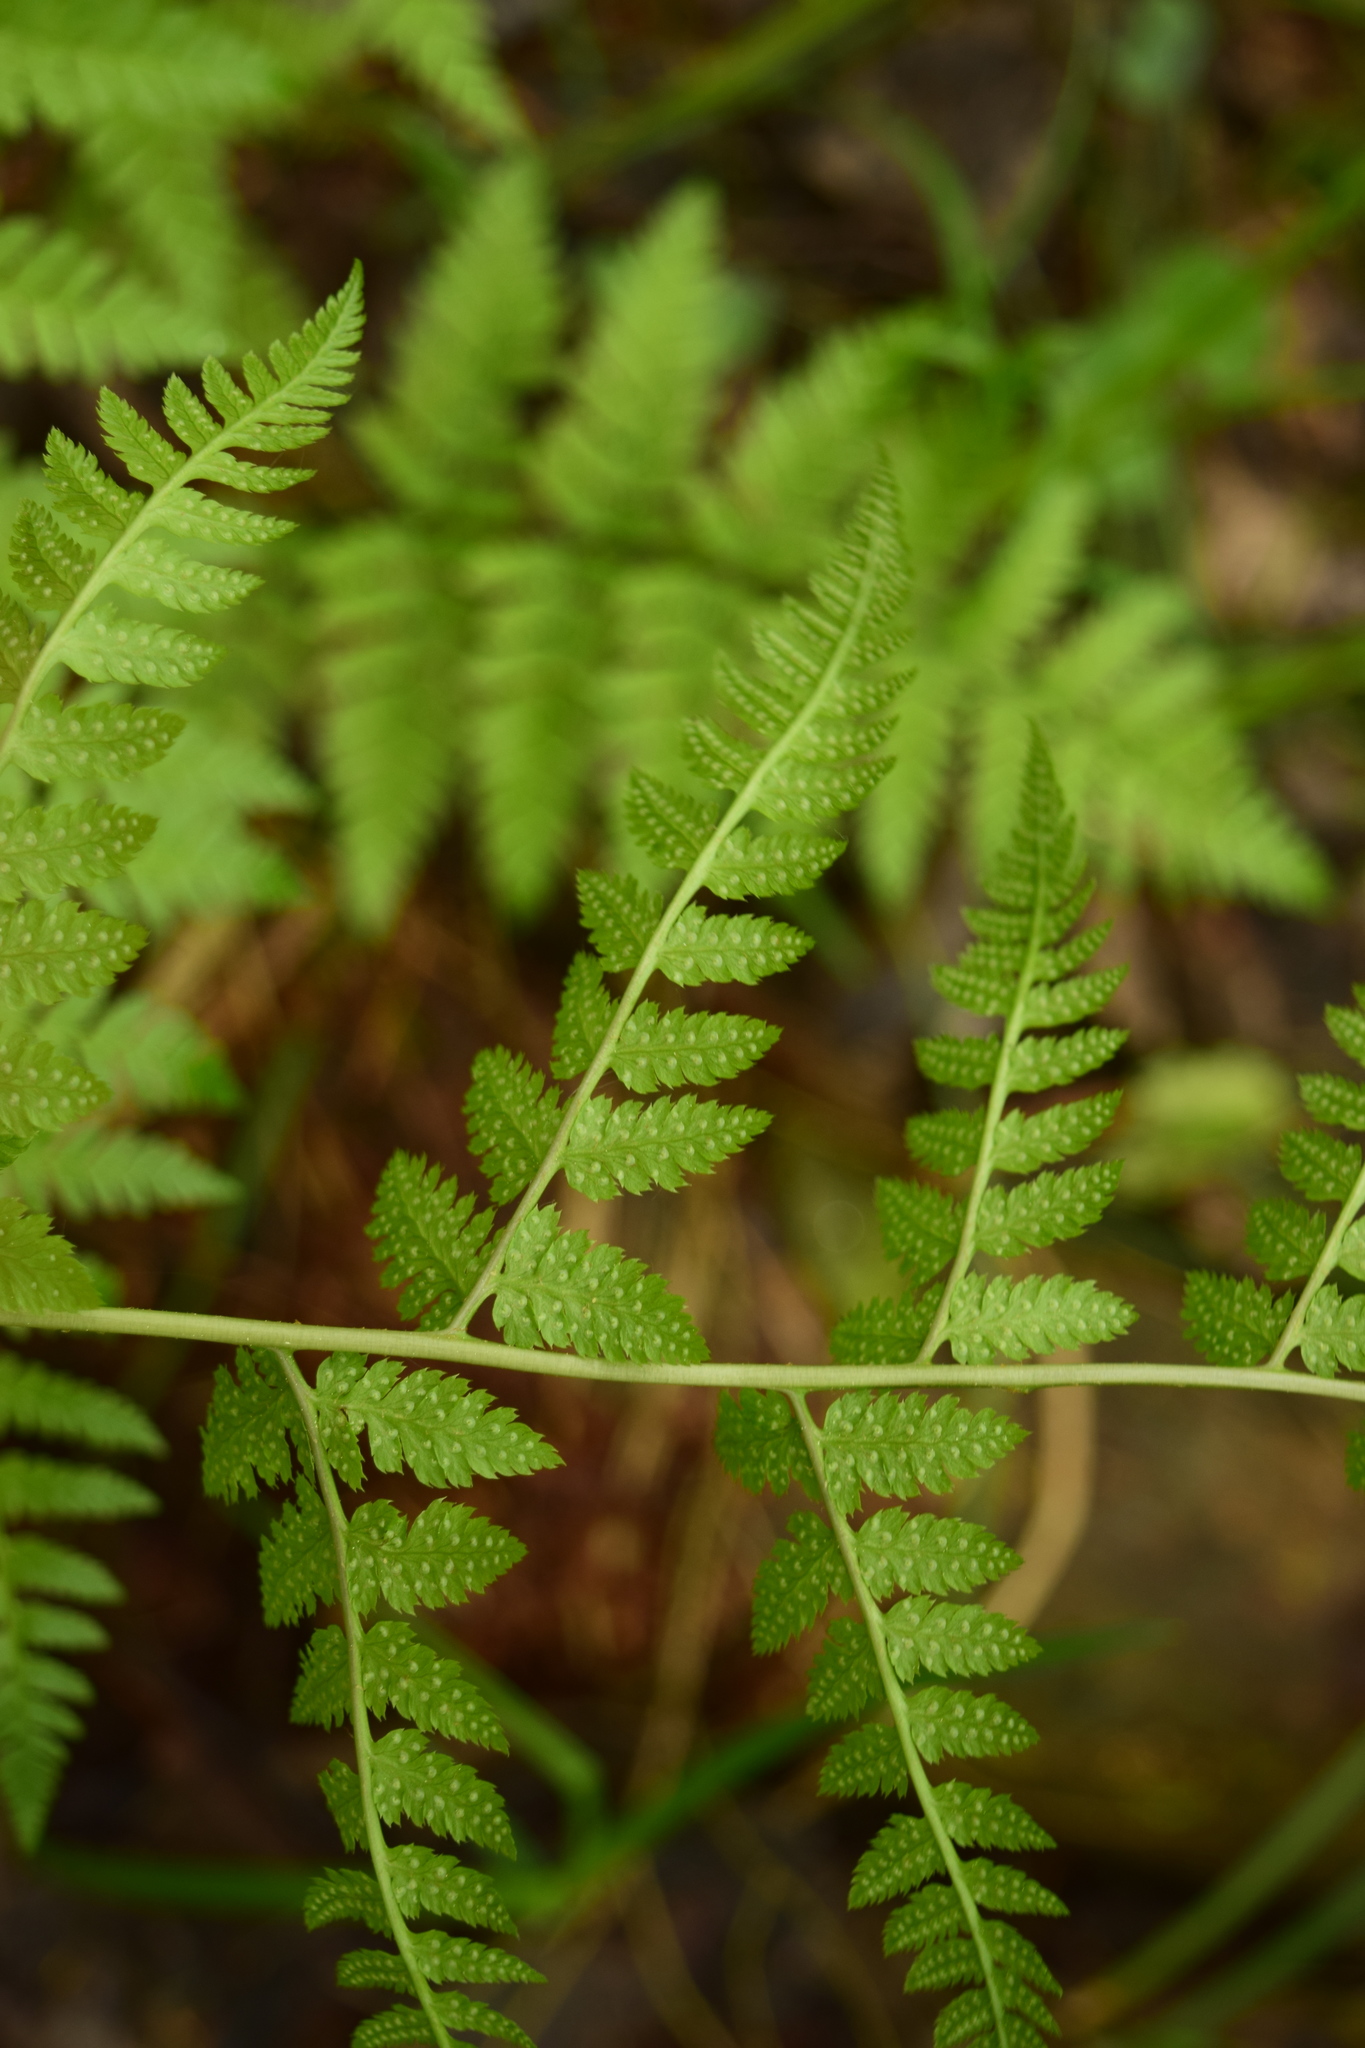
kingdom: Plantae
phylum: Tracheophyta
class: Polypodiopsida
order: Polypodiales
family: Dryopteridaceae
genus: Dryopteris
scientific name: Dryopteris carthusiana
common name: Narrow buckler-fern
